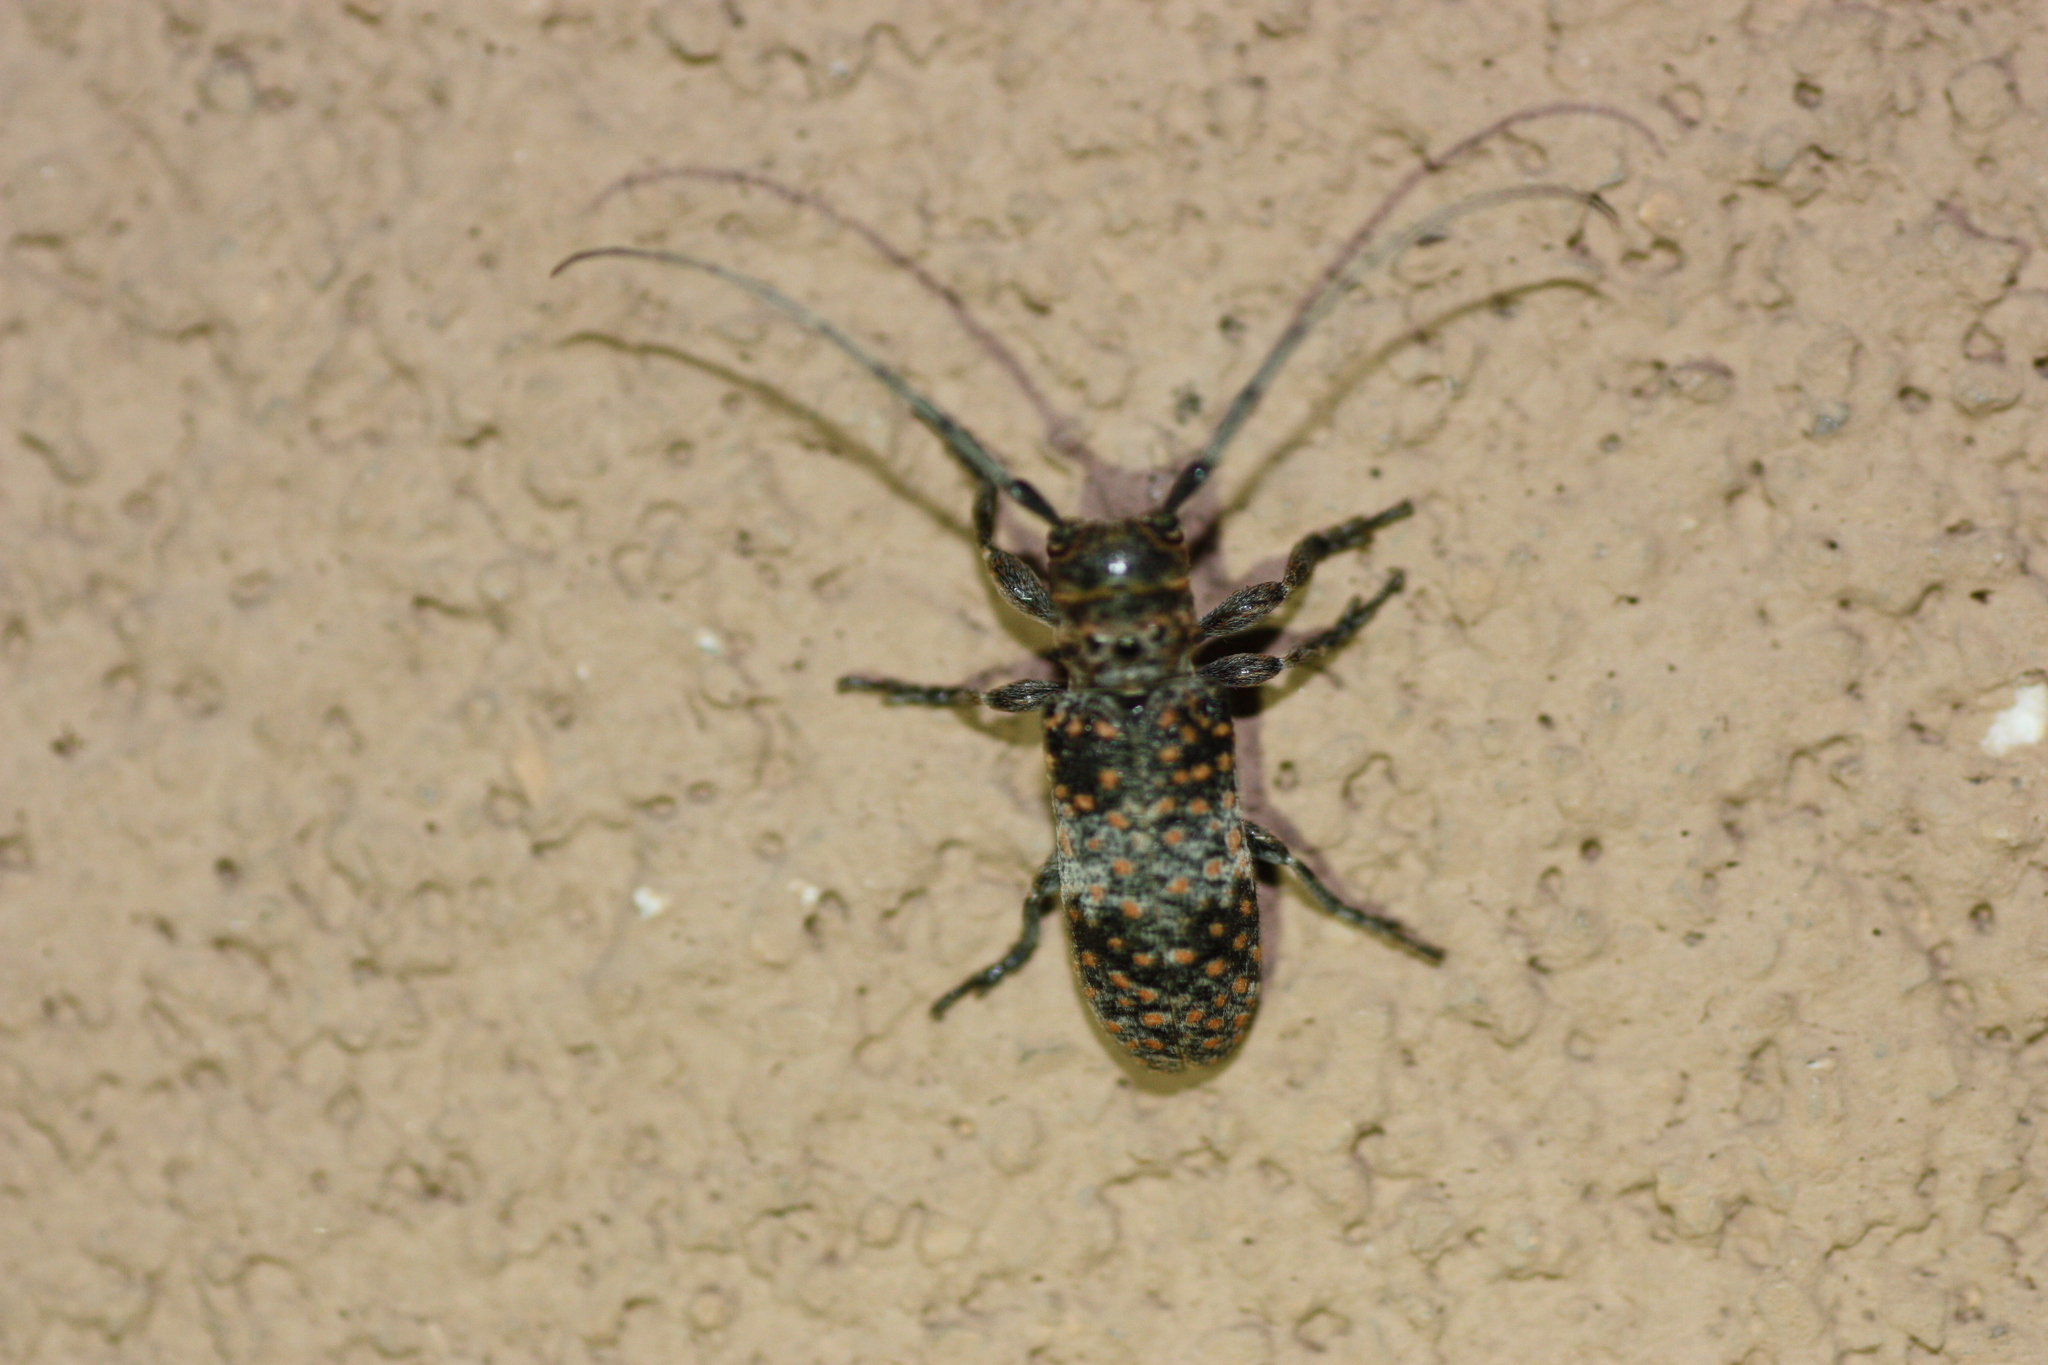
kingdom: Animalia
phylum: Arthropoda
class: Insecta
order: Coleoptera
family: Cerambycidae
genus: Oncideres
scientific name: Oncideres rhodosticta
